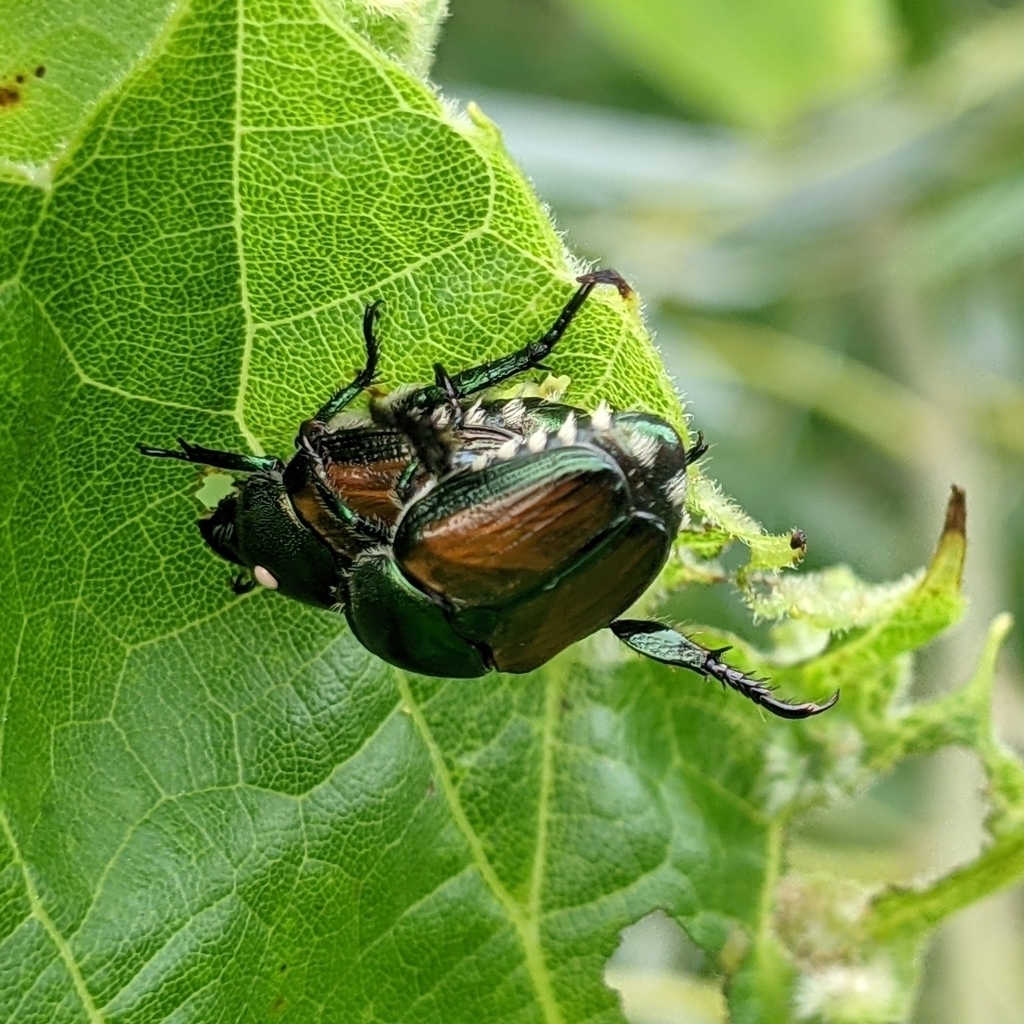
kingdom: Animalia
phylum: Arthropoda
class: Insecta
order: Diptera
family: Tachinidae
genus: Istocheta
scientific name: Istocheta aldrichi
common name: Parasitic wasp
